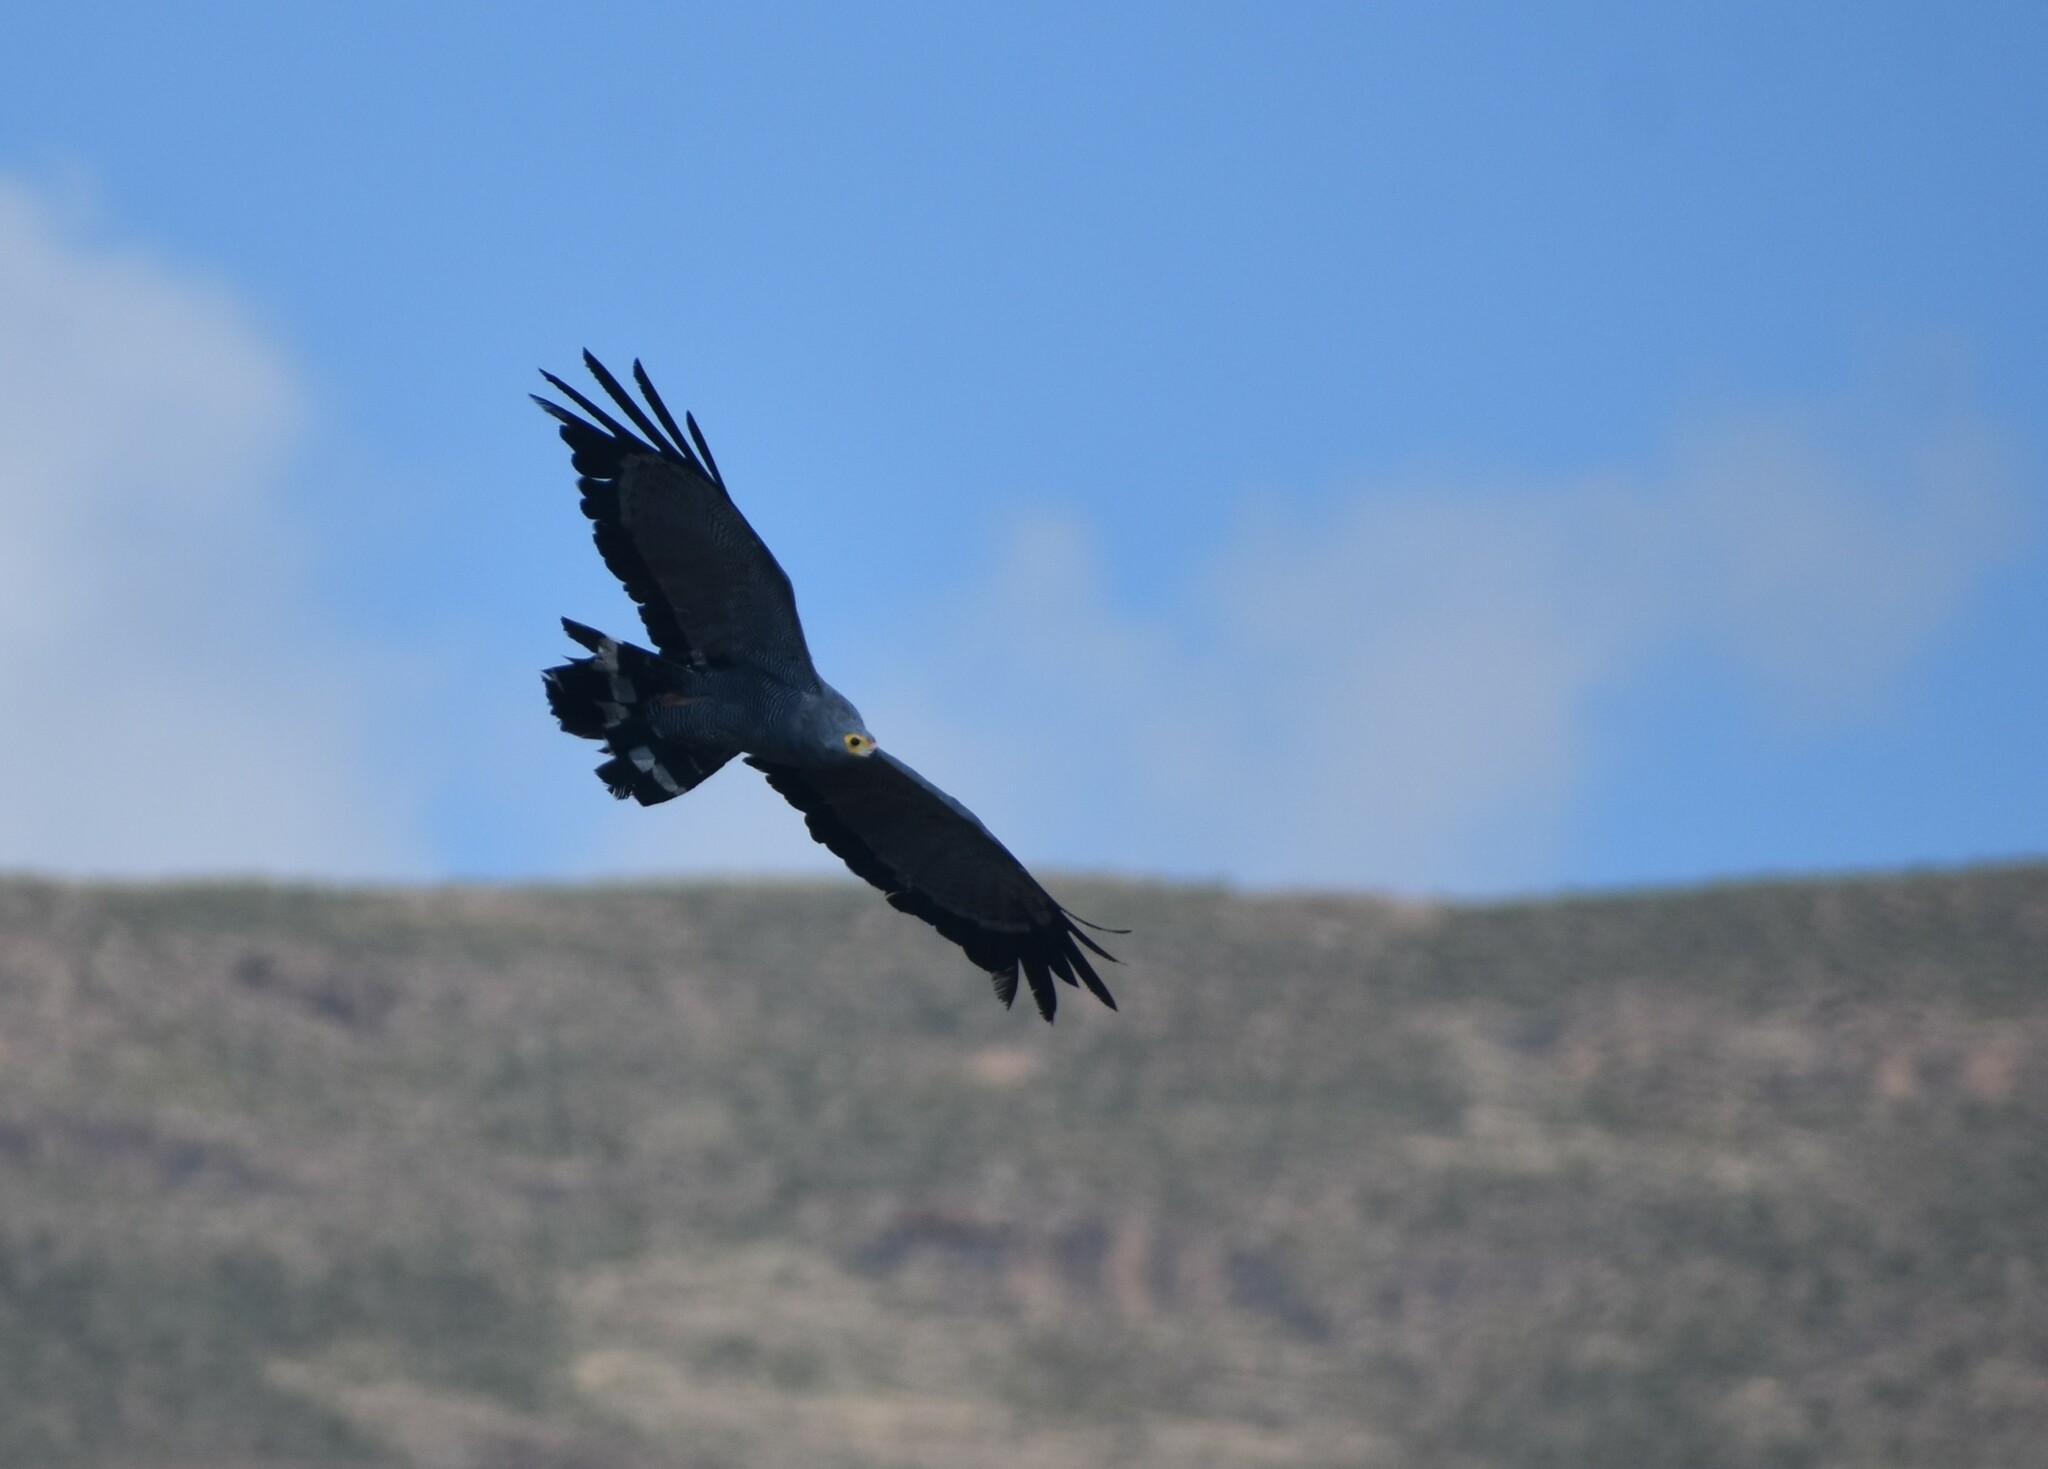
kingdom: Animalia
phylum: Chordata
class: Aves
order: Accipitriformes
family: Accipitridae
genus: Polyboroides
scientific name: Polyboroides typus
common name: African harrier-hawk
